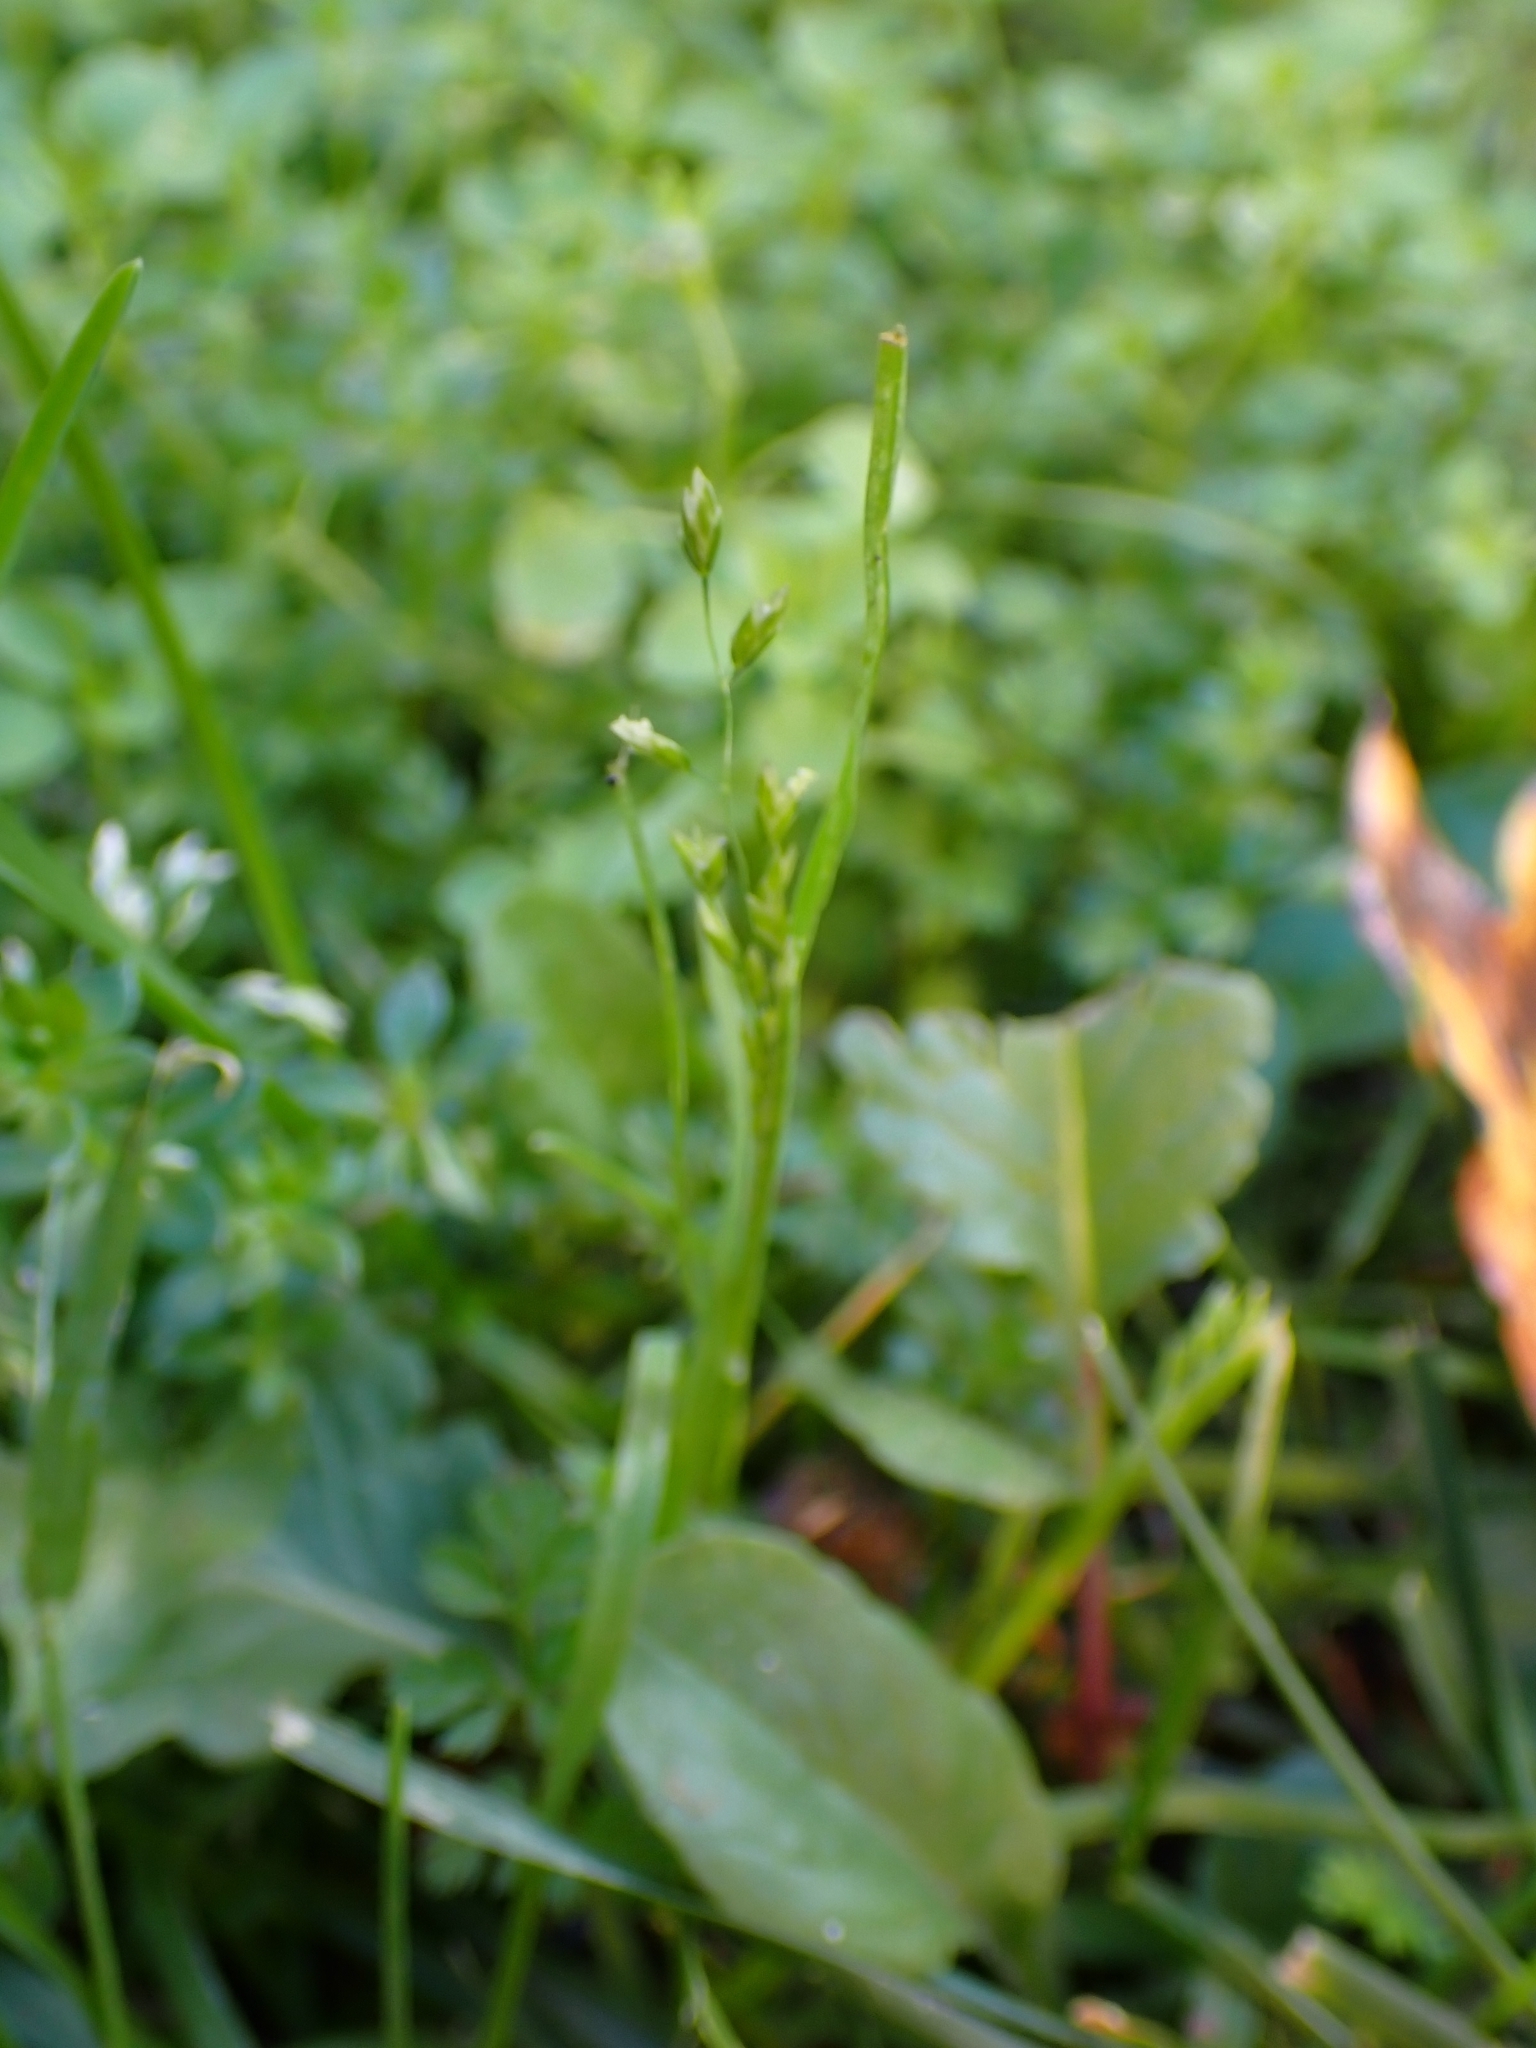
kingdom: Plantae
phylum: Tracheophyta
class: Liliopsida
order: Poales
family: Poaceae
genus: Poa
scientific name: Poa annua
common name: Annual bluegrass
